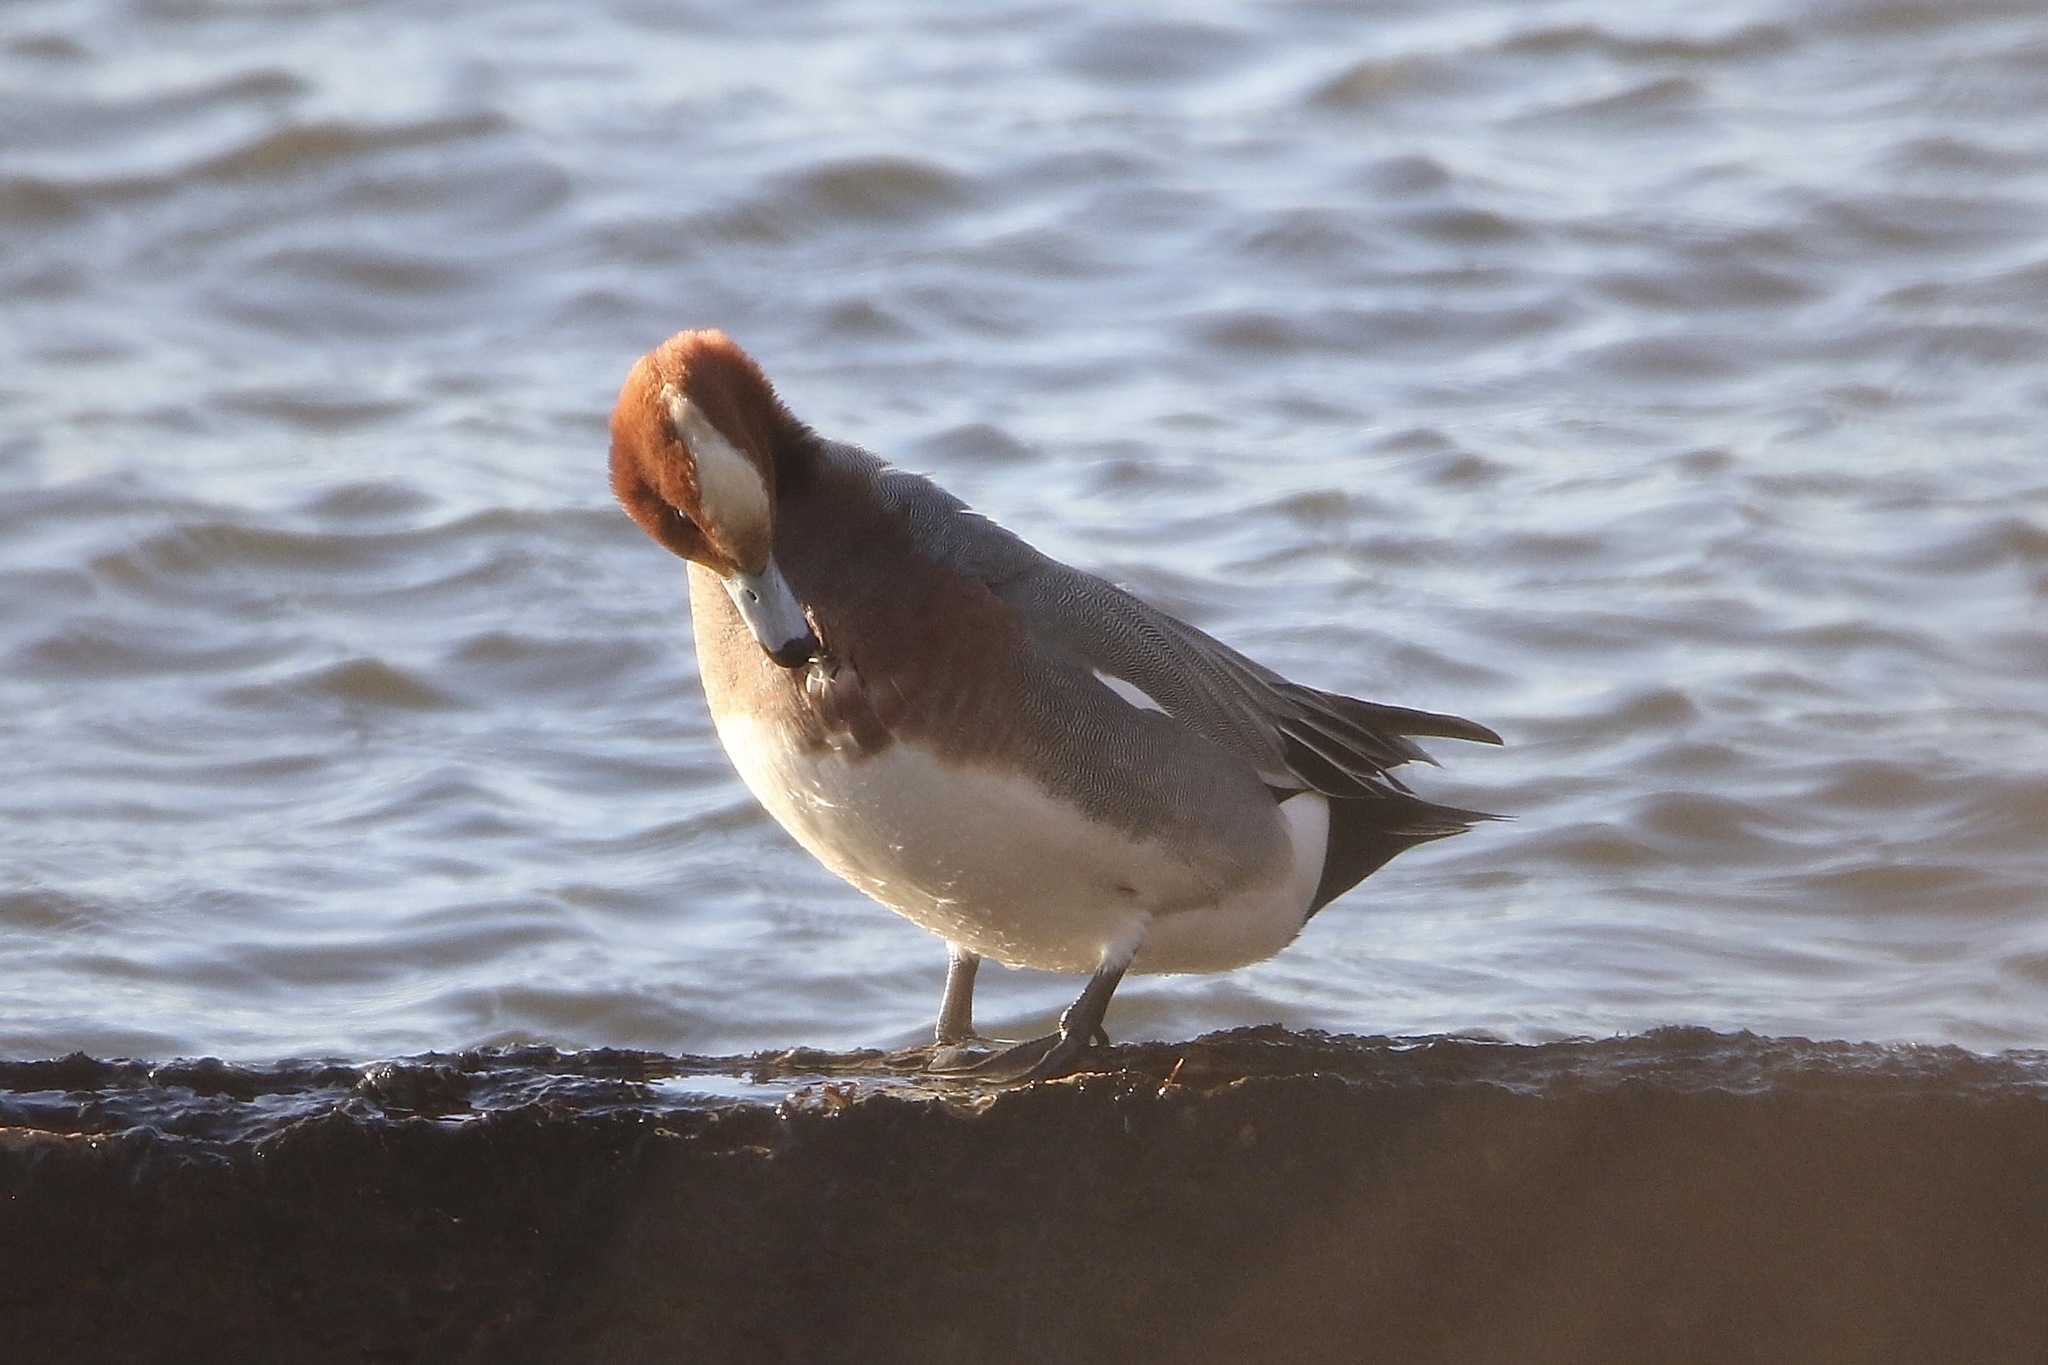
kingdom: Animalia
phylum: Chordata
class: Aves
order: Anseriformes
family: Anatidae
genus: Mareca
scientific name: Mareca penelope
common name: Eurasian wigeon
